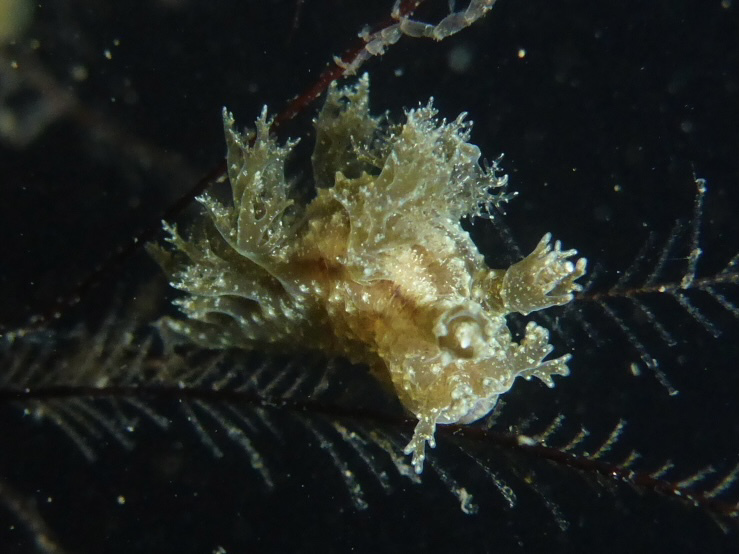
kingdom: Animalia
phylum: Mollusca
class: Gastropoda
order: Nudibranchia
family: Dendronotidae
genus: Dendronotus
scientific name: Dendronotus venustus
